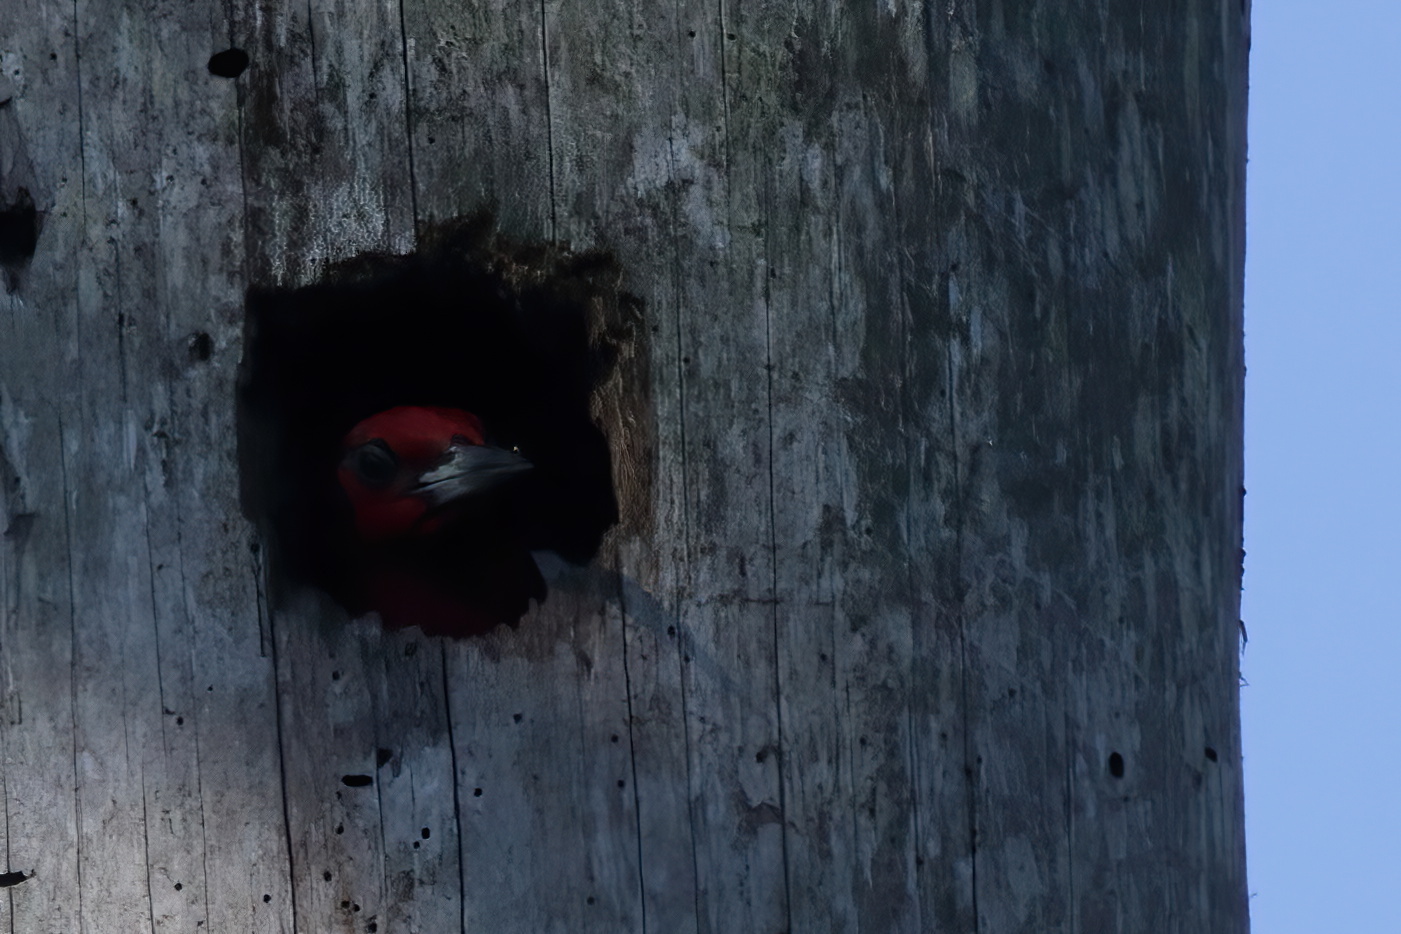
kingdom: Animalia
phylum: Chordata
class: Aves
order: Piciformes
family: Picidae
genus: Melanerpes
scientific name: Melanerpes erythrocephalus
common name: Red-headed woodpecker
